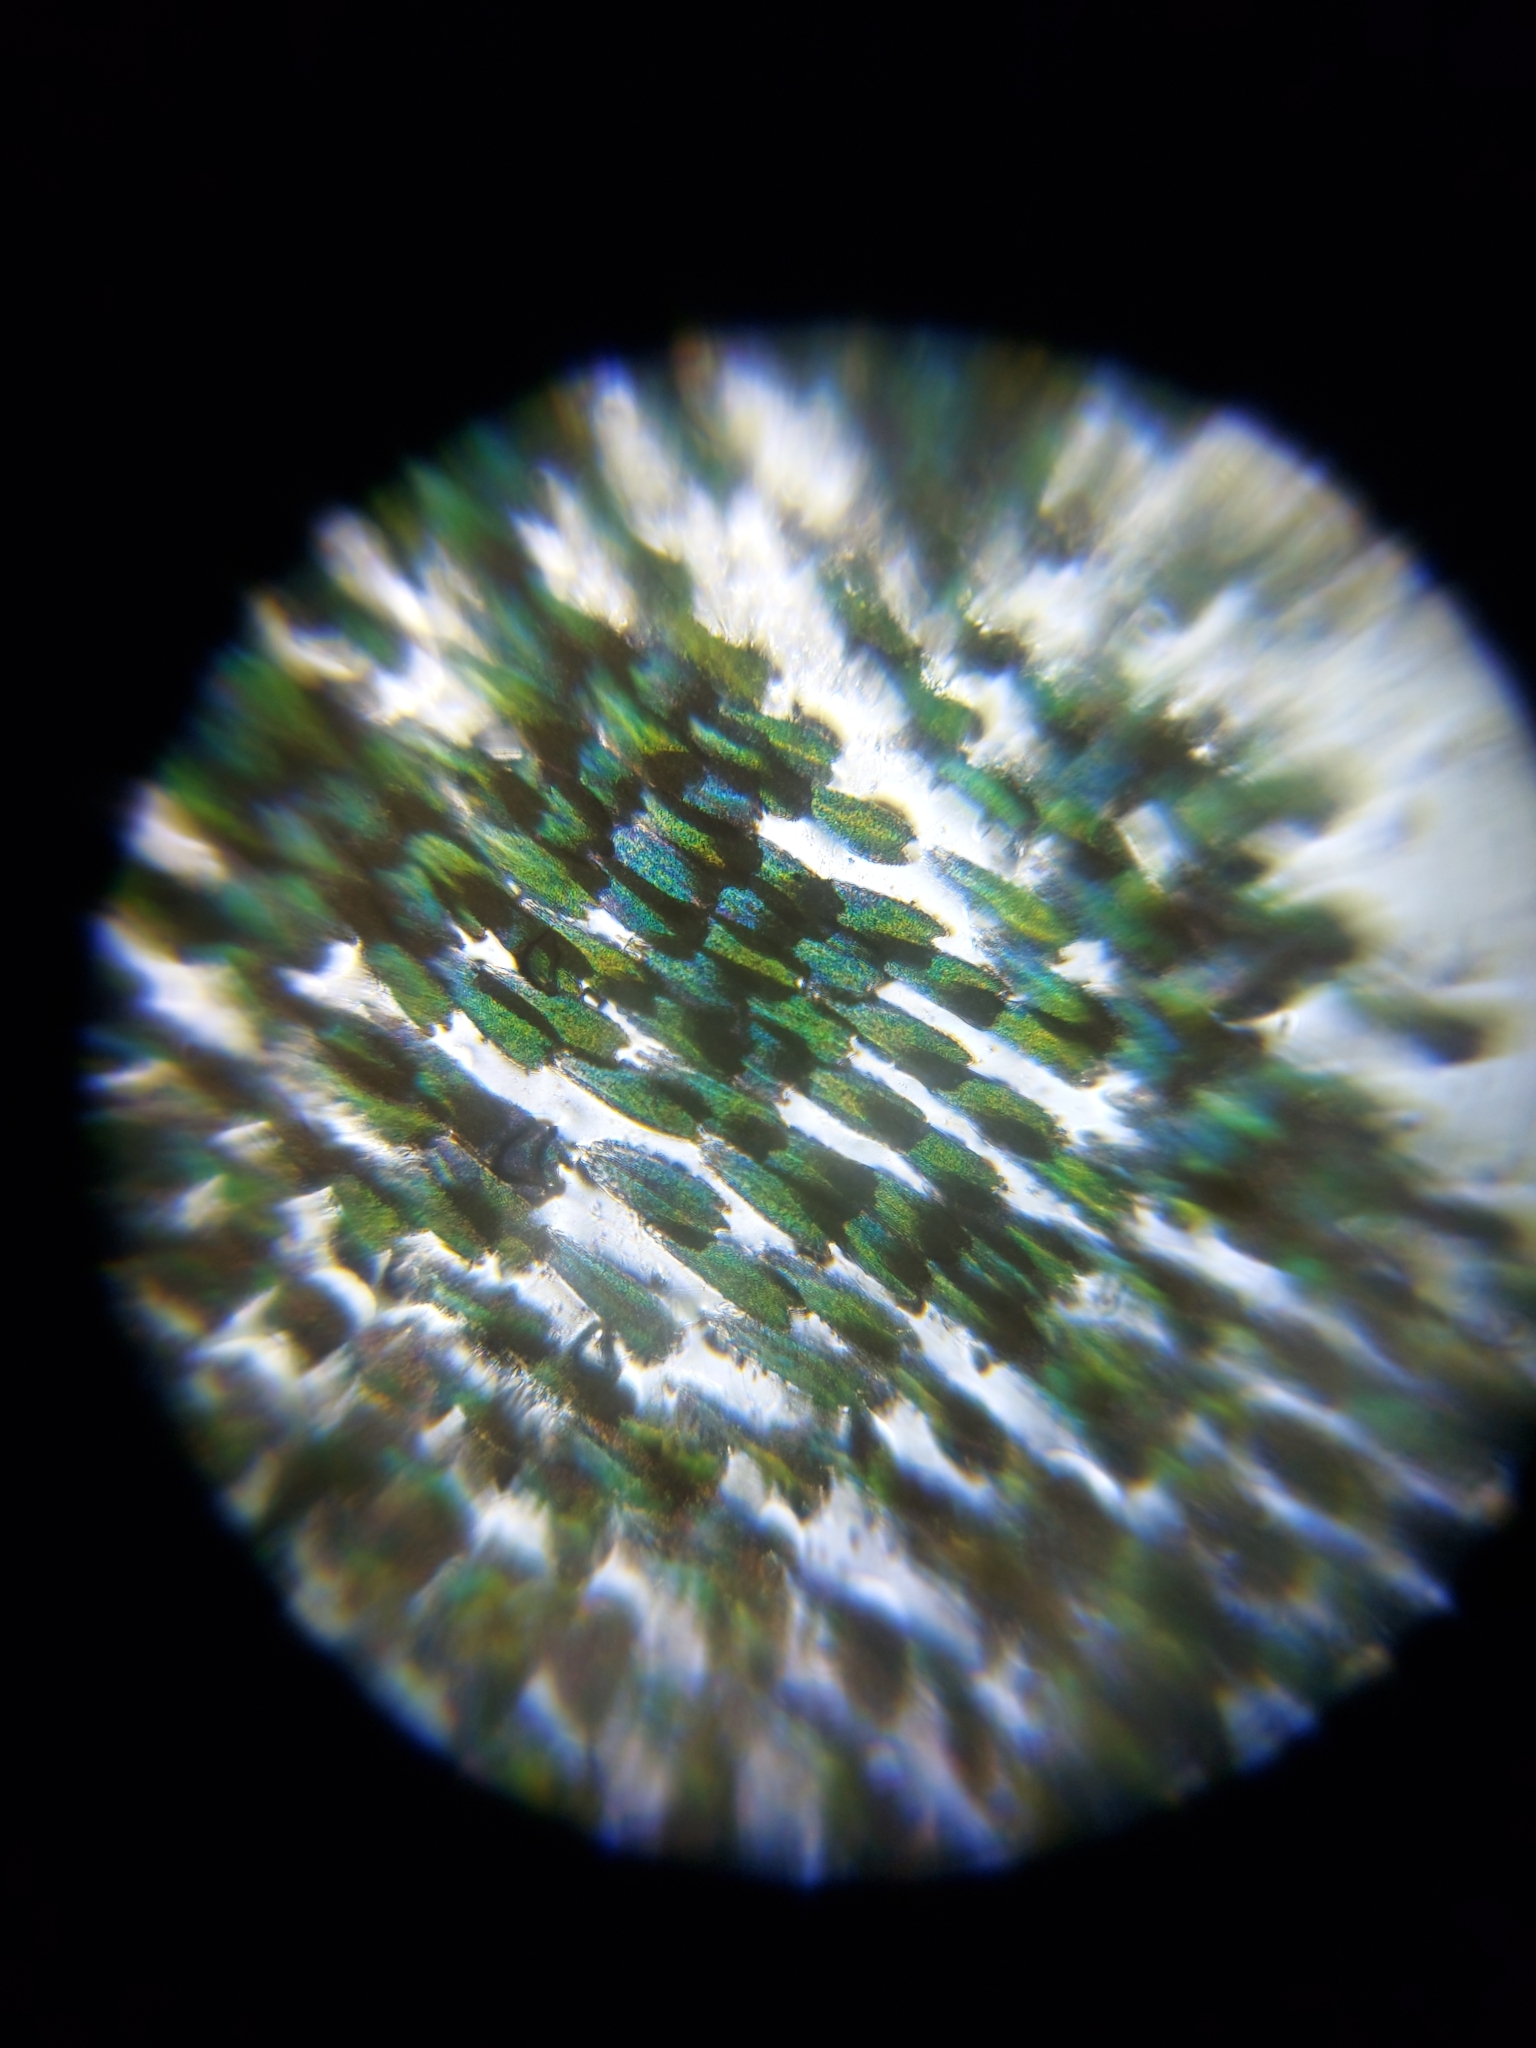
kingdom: Animalia
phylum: Arthropoda
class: Insecta
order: Lepidoptera
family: Papilionidae
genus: Papilio
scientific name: Papilio pilumnus
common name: Three-tailed tiger swallowtail
